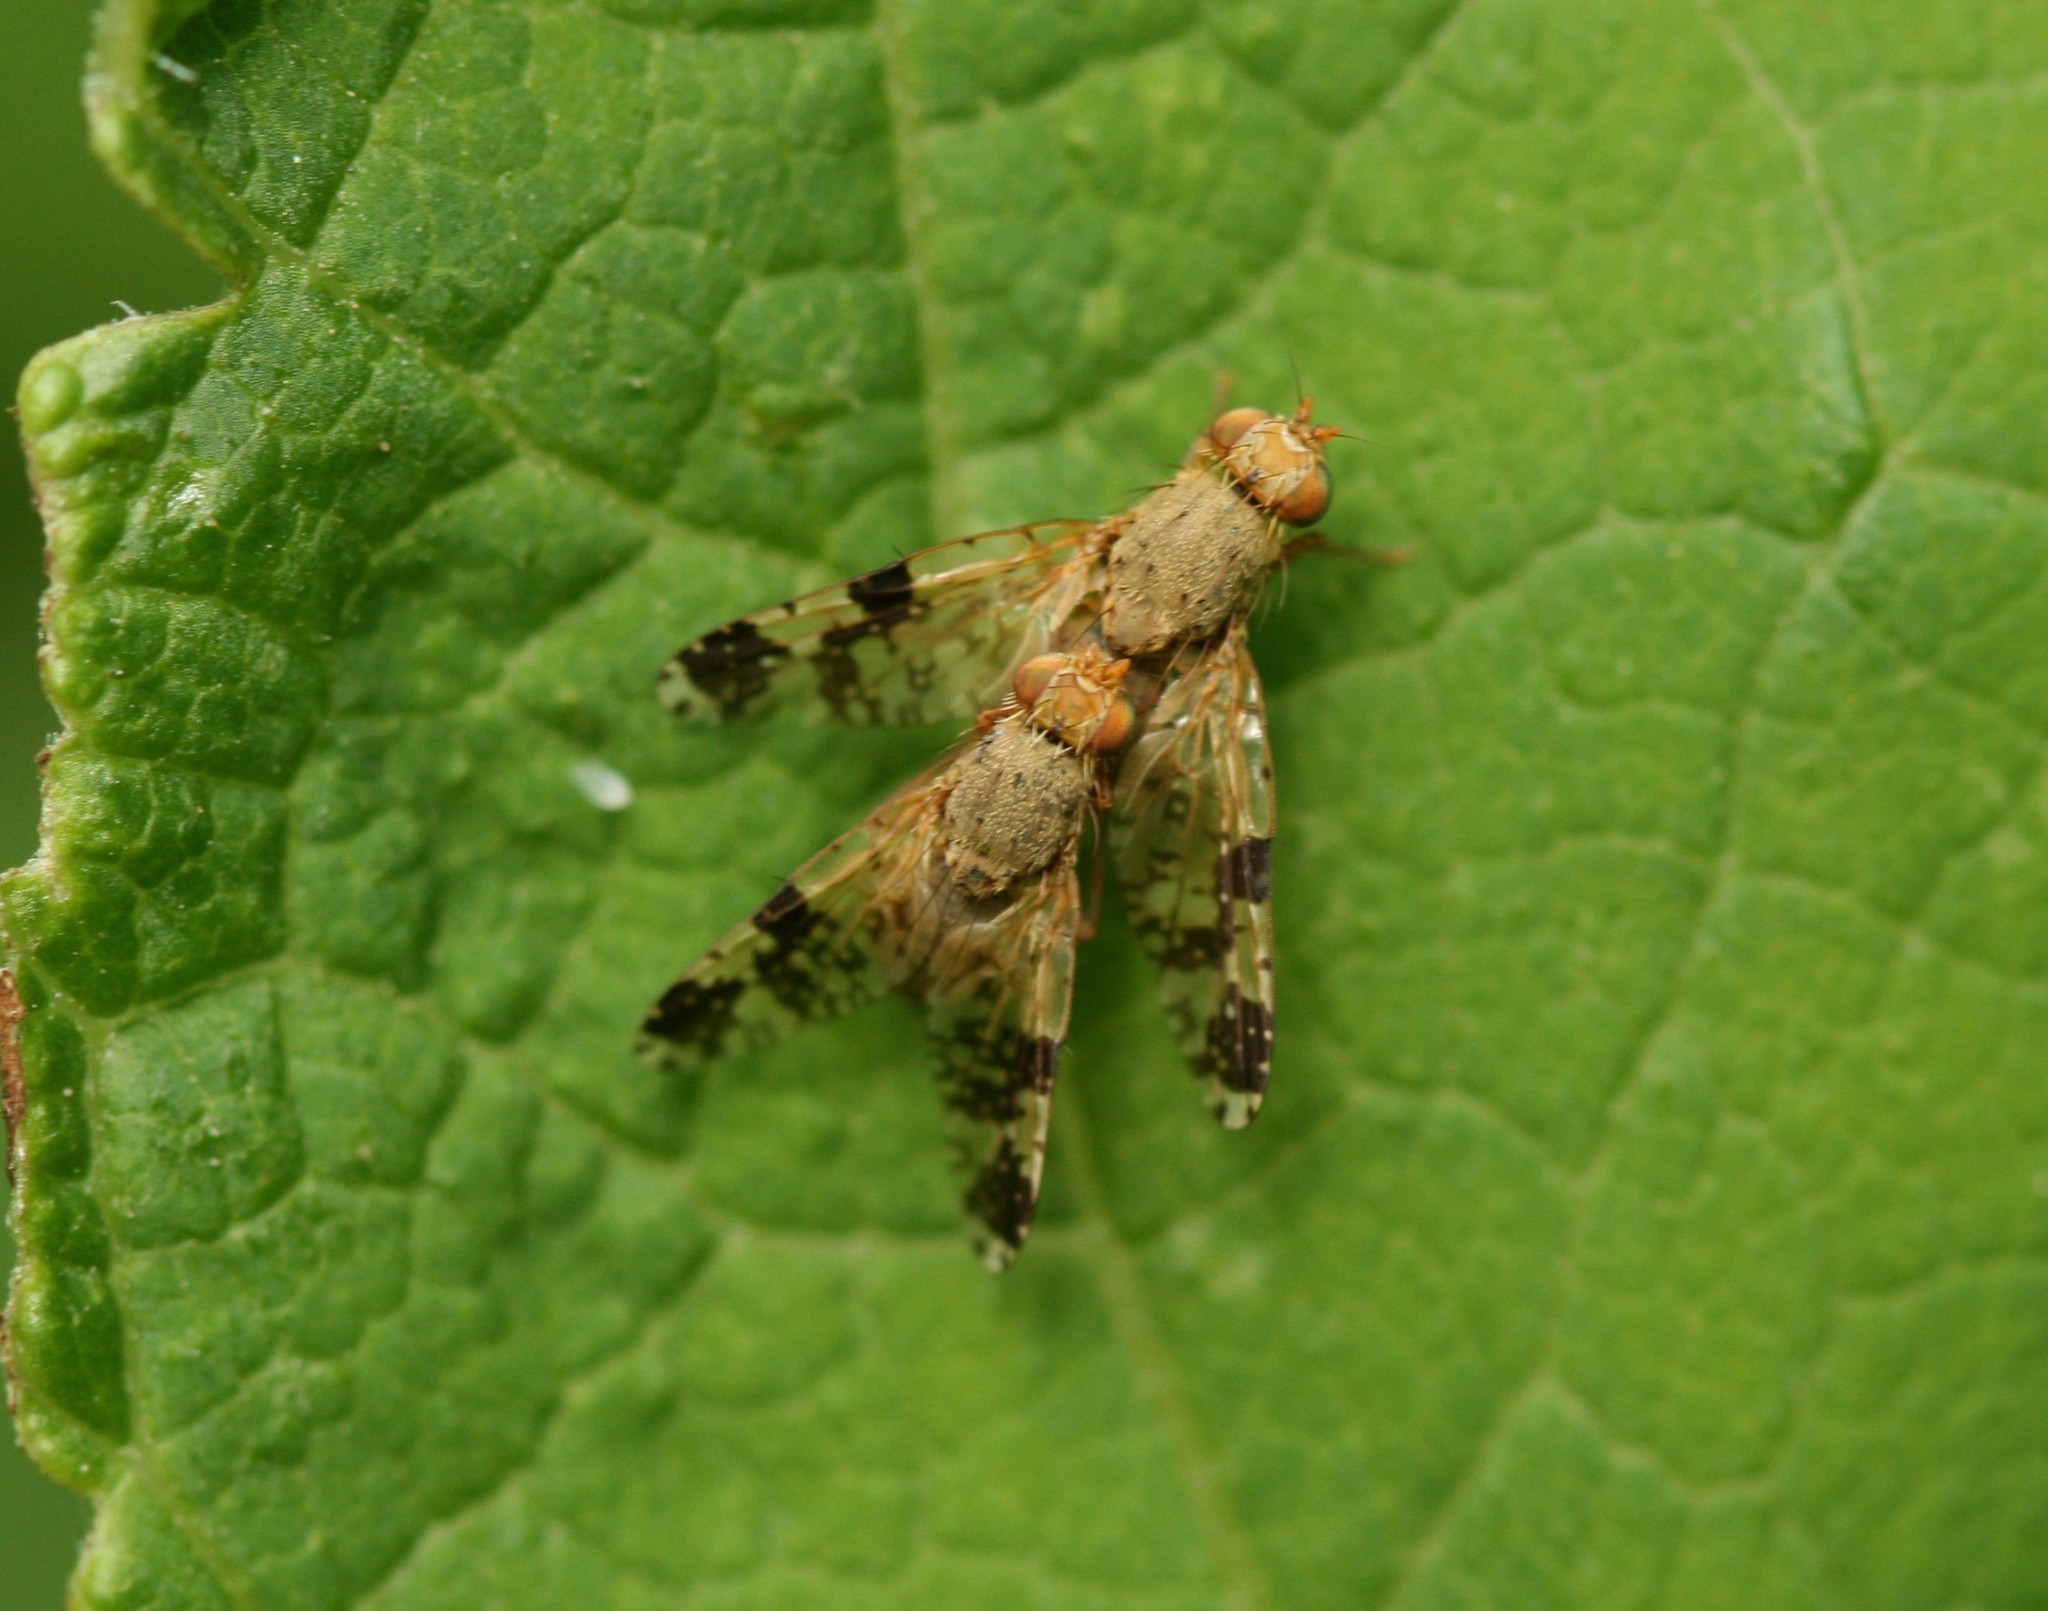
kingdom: Animalia
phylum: Arthropoda
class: Insecta
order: Diptera
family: Tephritidae
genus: Tephritis
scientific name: Tephritis bardanae
